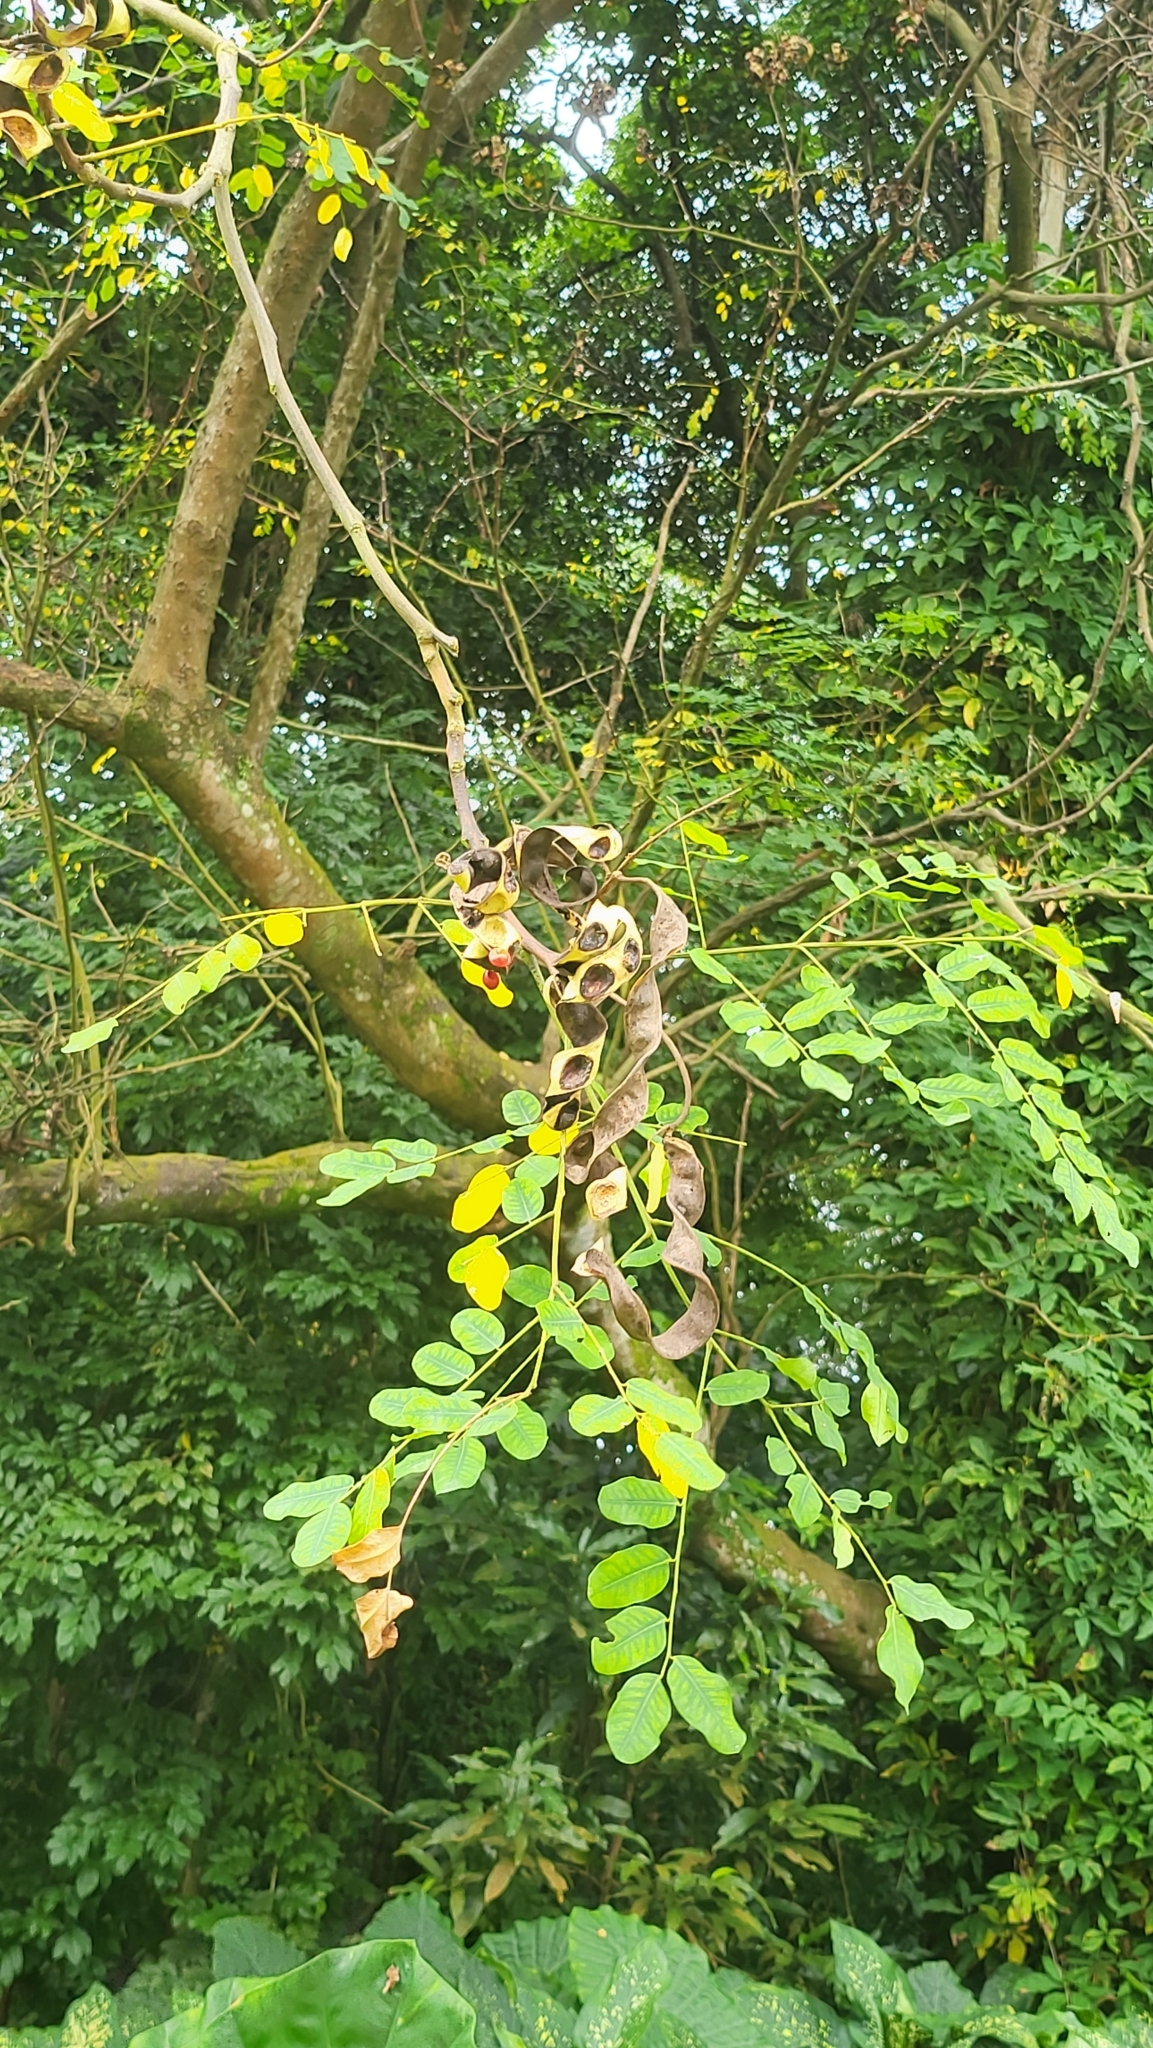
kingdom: Plantae
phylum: Tracheophyta
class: Magnoliopsida
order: Fabales
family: Fabaceae
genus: Adenanthera
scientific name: Adenanthera pavonina
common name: Red beadtree
